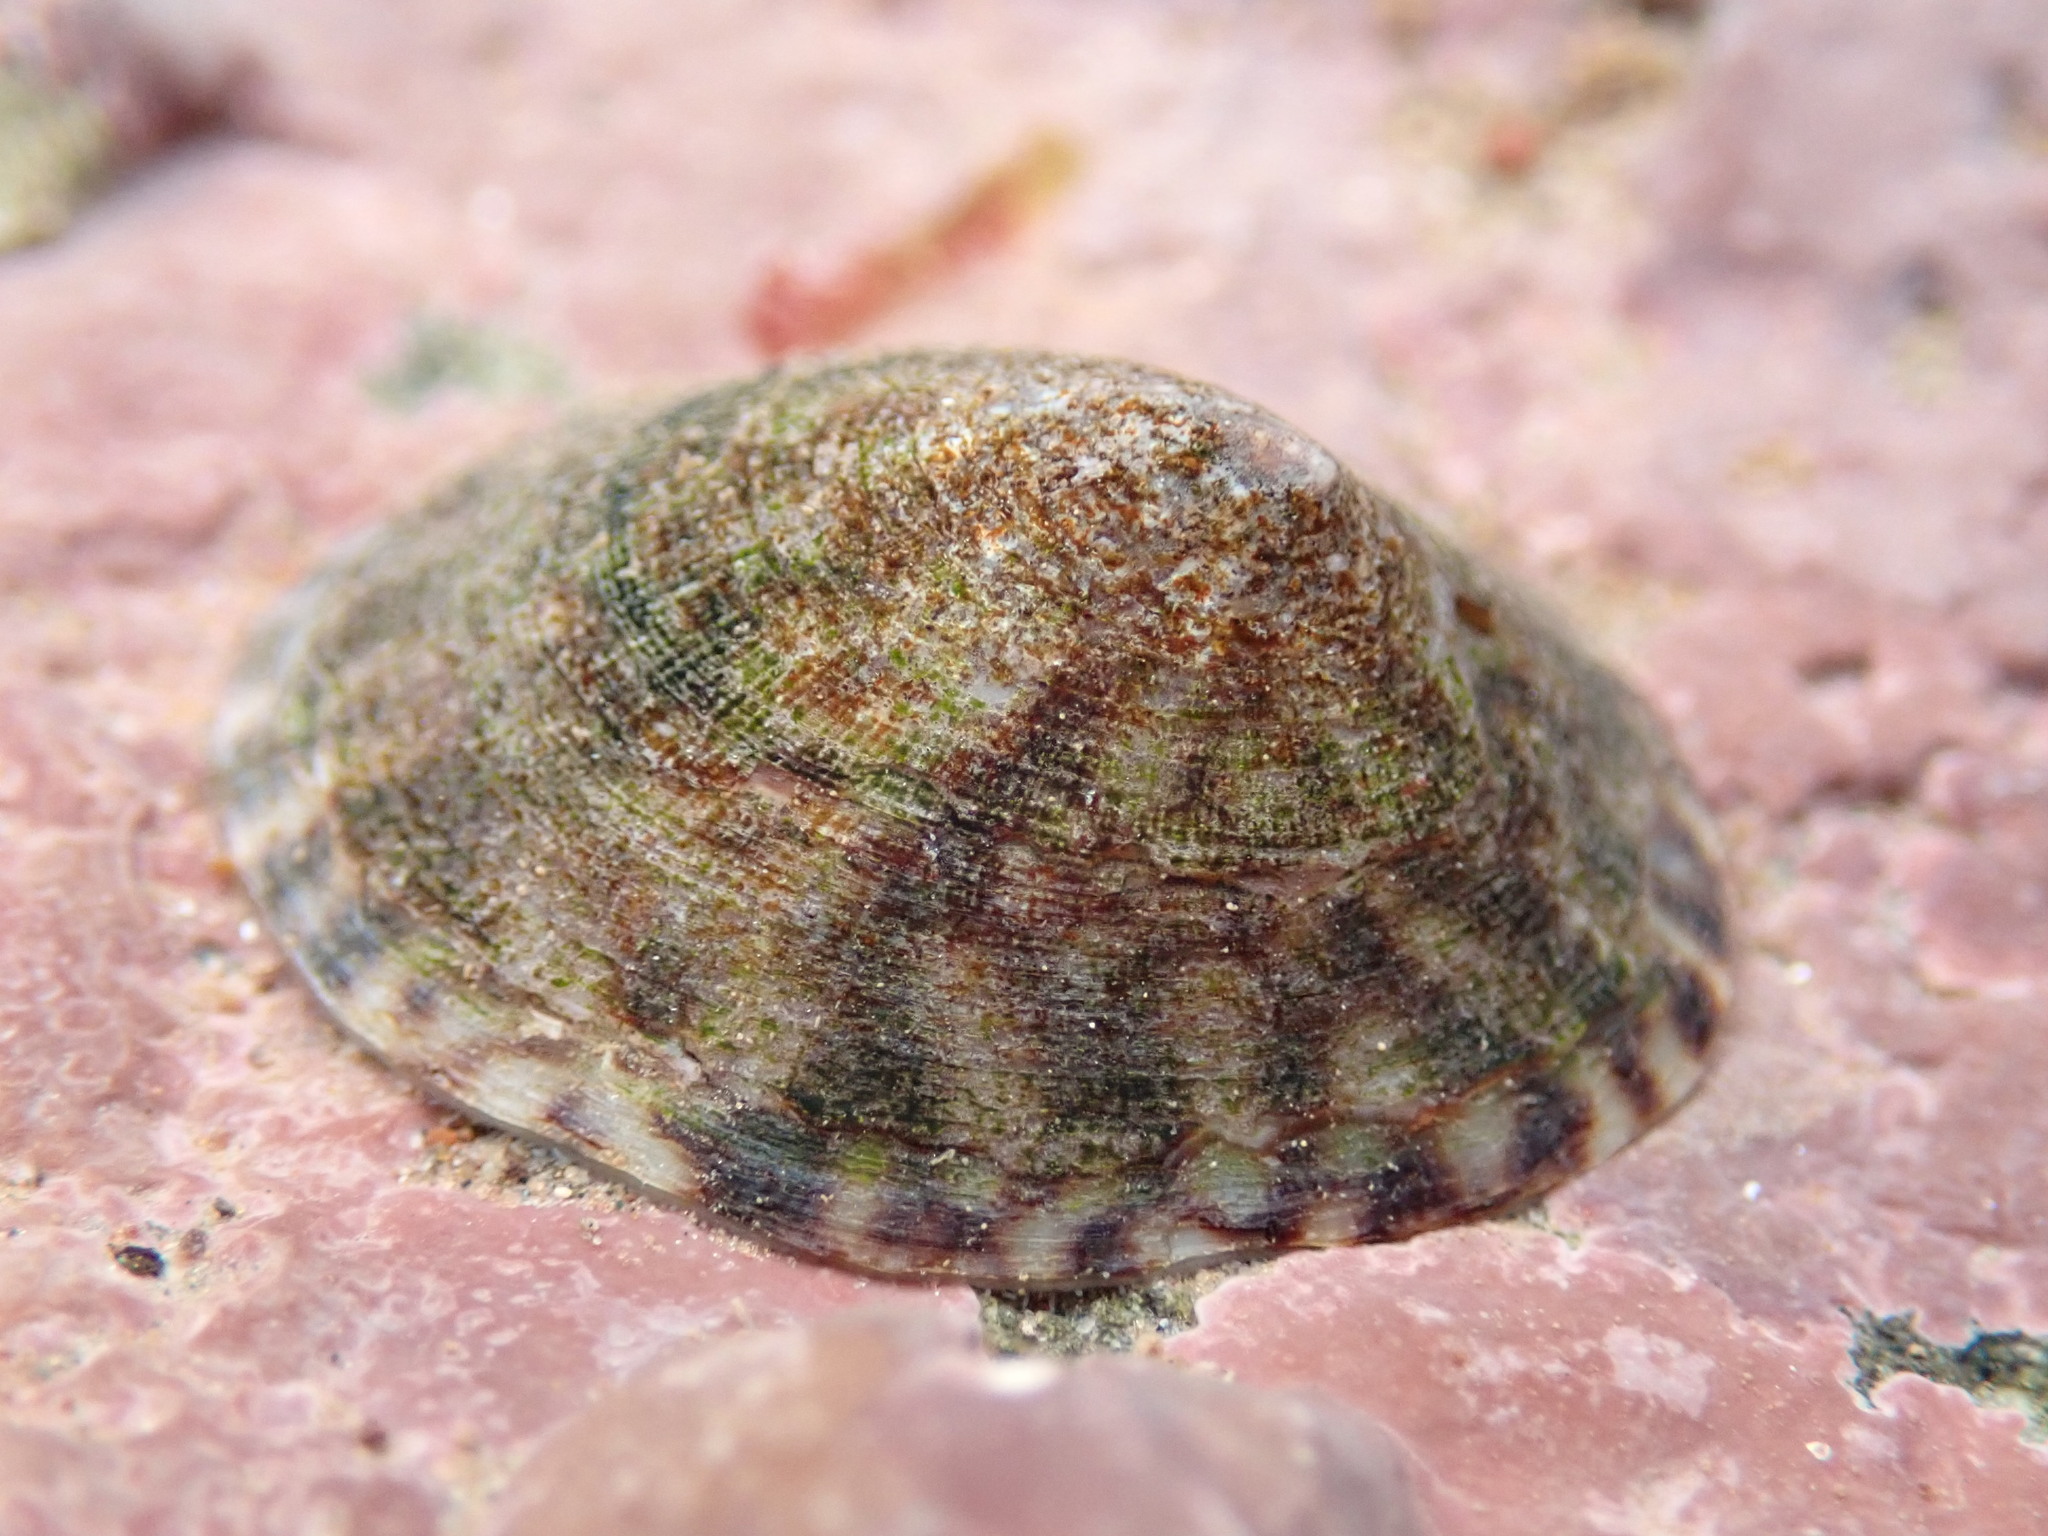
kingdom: Animalia
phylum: Mollusca
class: Gastropoda
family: Lottiidae
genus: Testudinalia
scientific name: Testudinalia testudinalis
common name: Common tortoiseshell limpet
